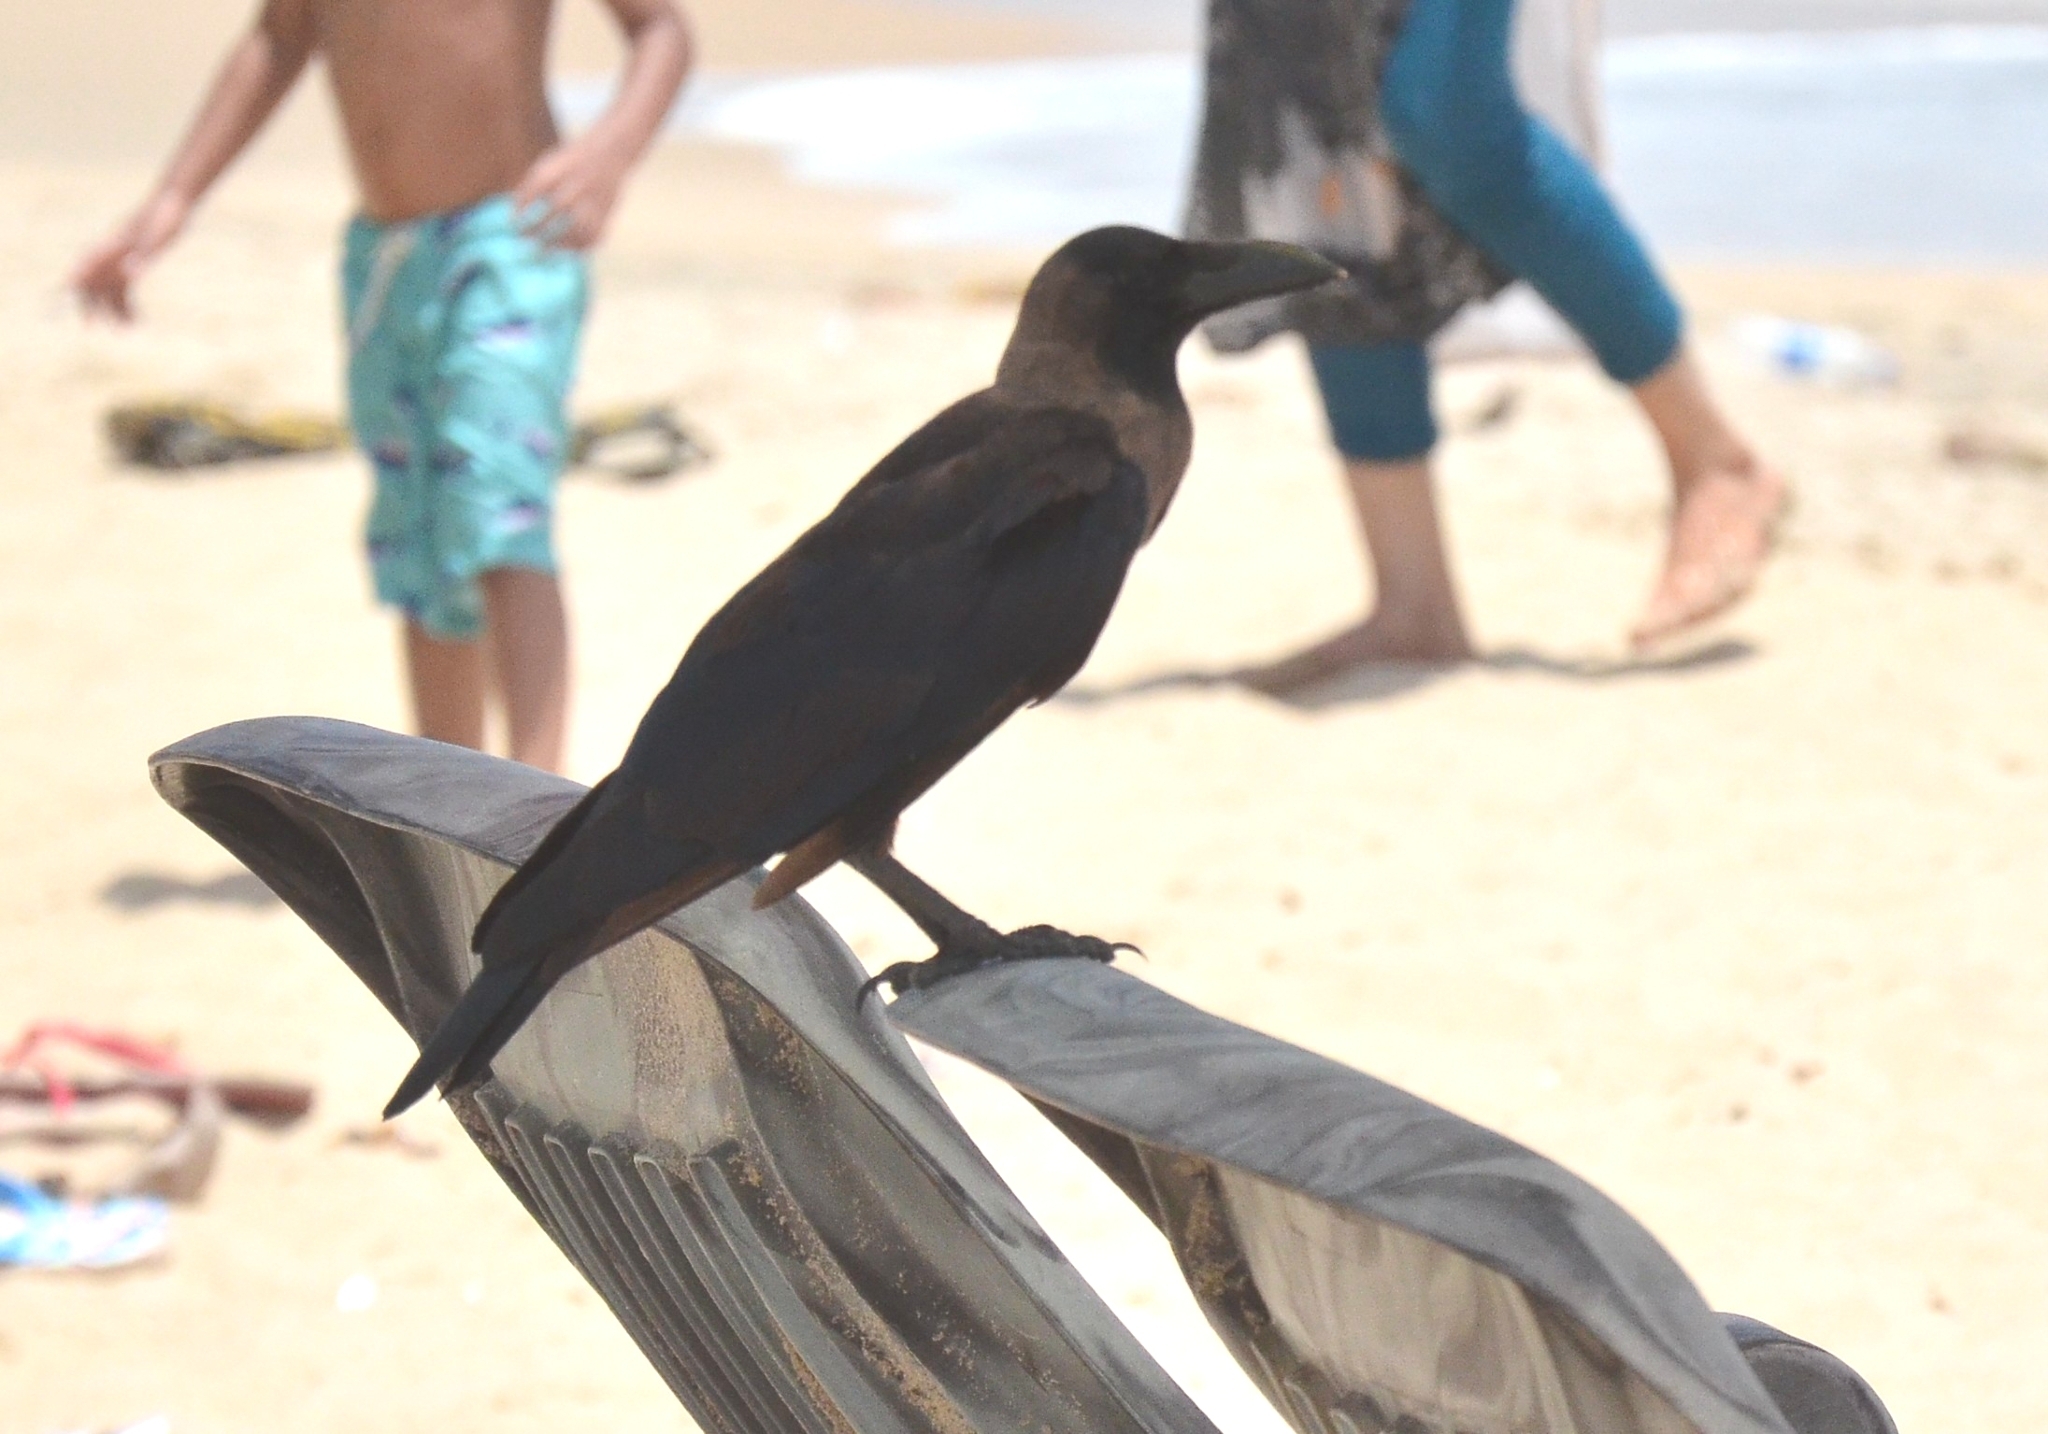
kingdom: Animalia
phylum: Chordata
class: Aves
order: Passeriformes
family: Corvidae
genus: Corvus
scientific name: Corvus splendens
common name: House crow
